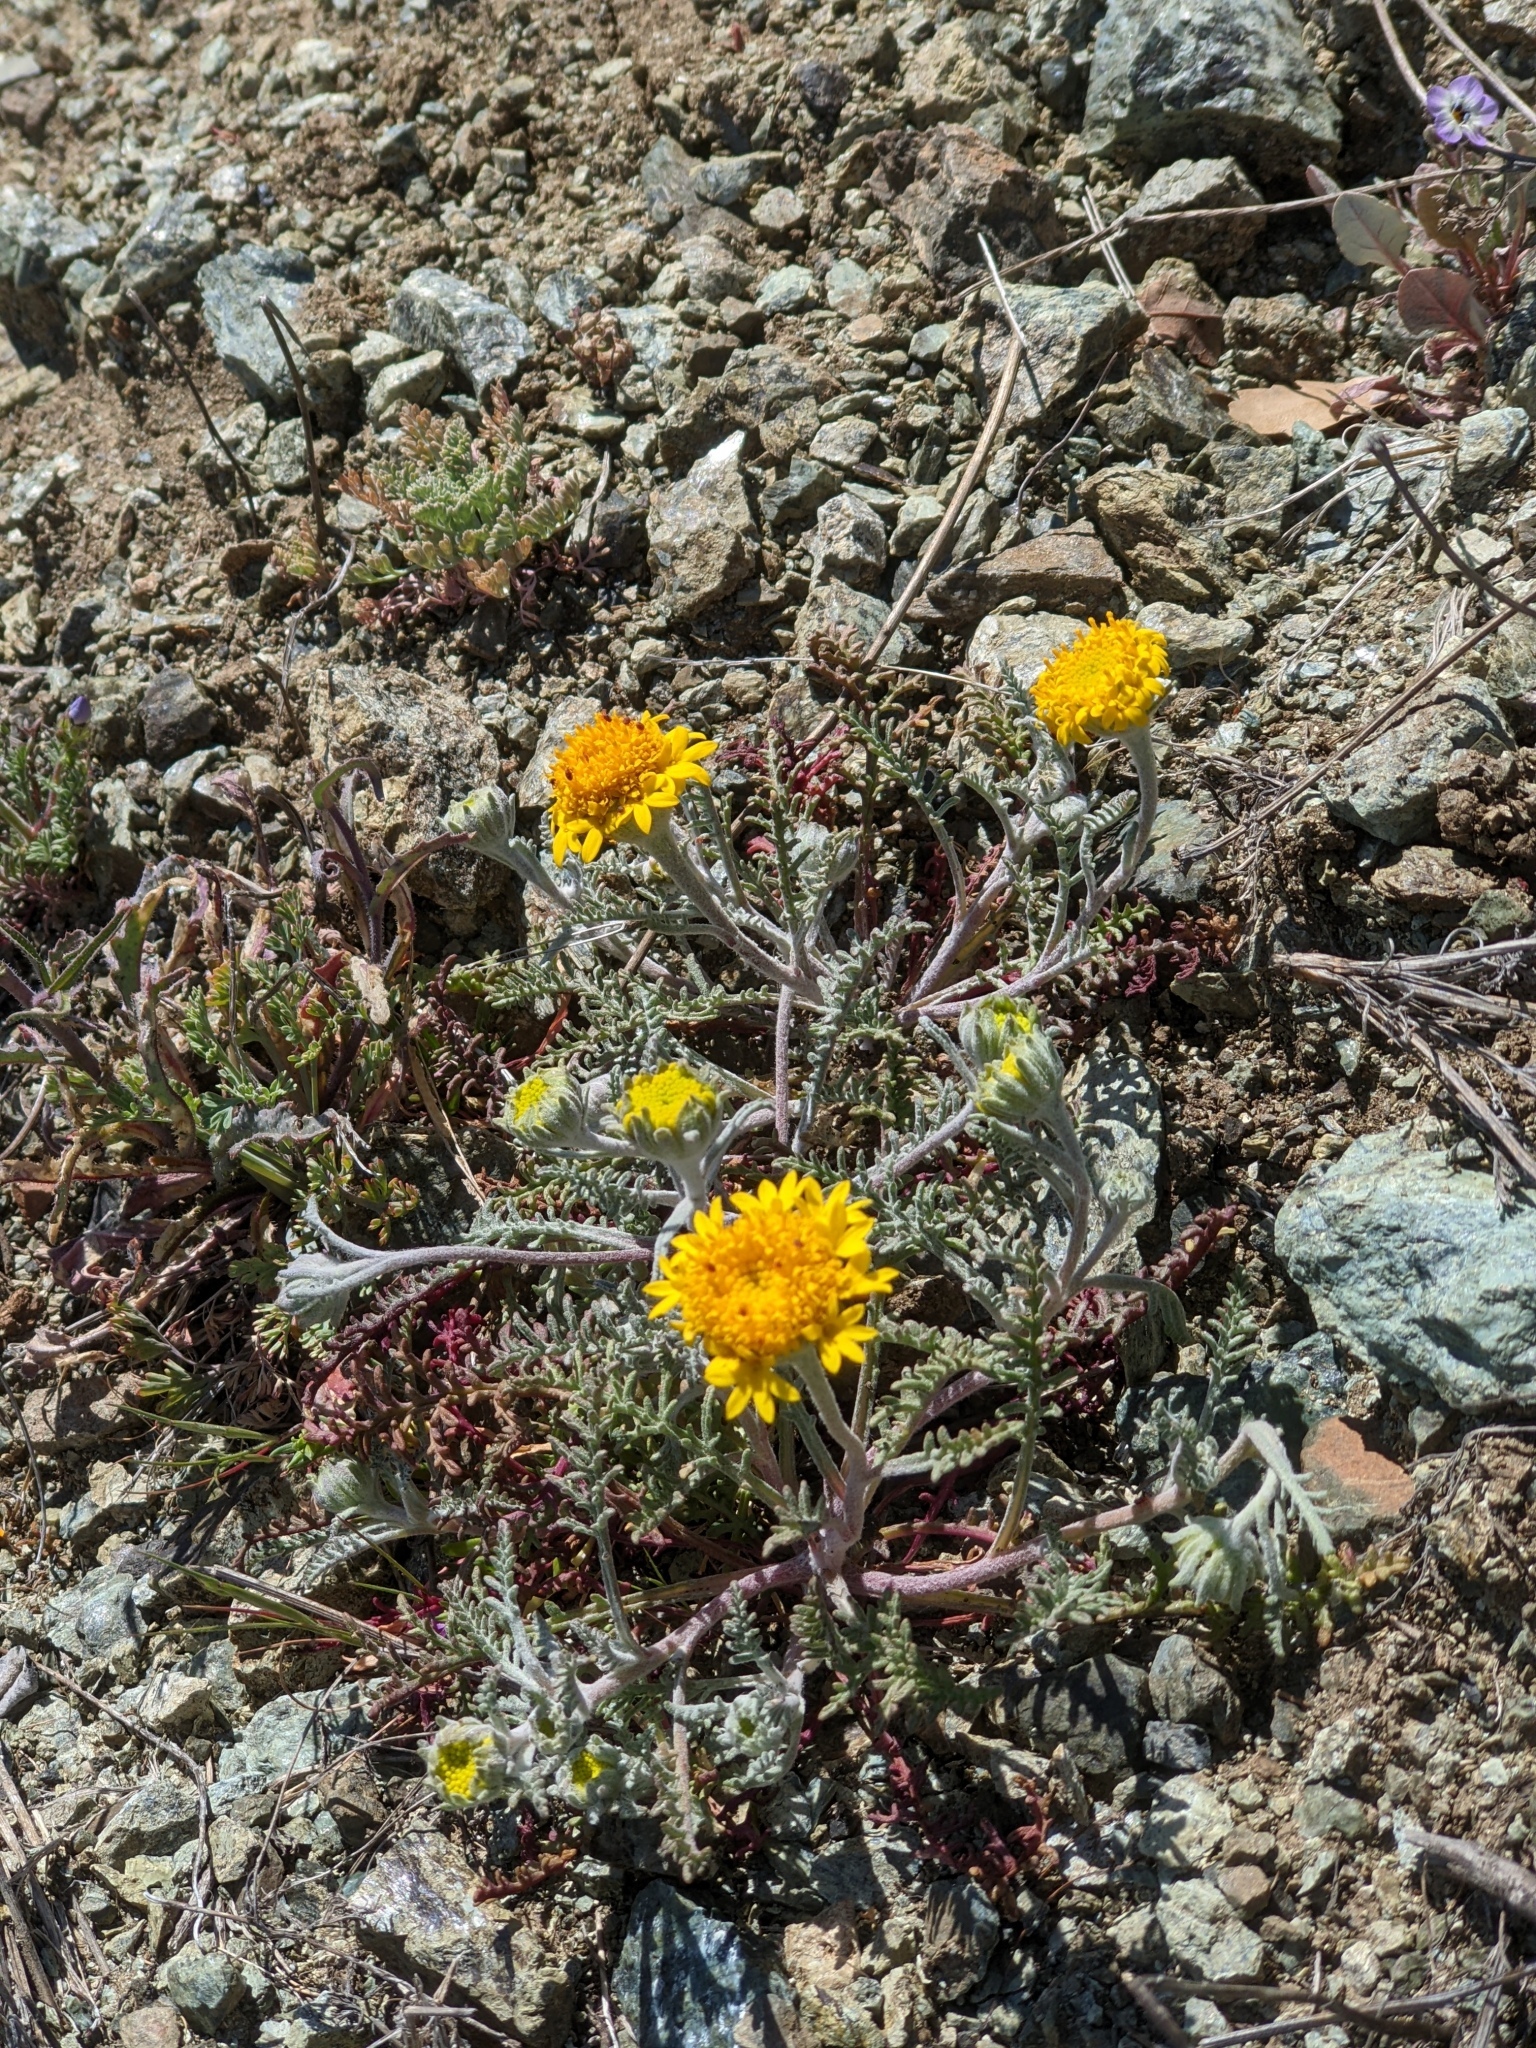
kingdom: Plantae
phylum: Tracheophyta
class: Magnoliopsida
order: Asterales
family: Asteraceae
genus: Chaenactis
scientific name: Chaenactis glabriuscula
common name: Yellow pincushion
